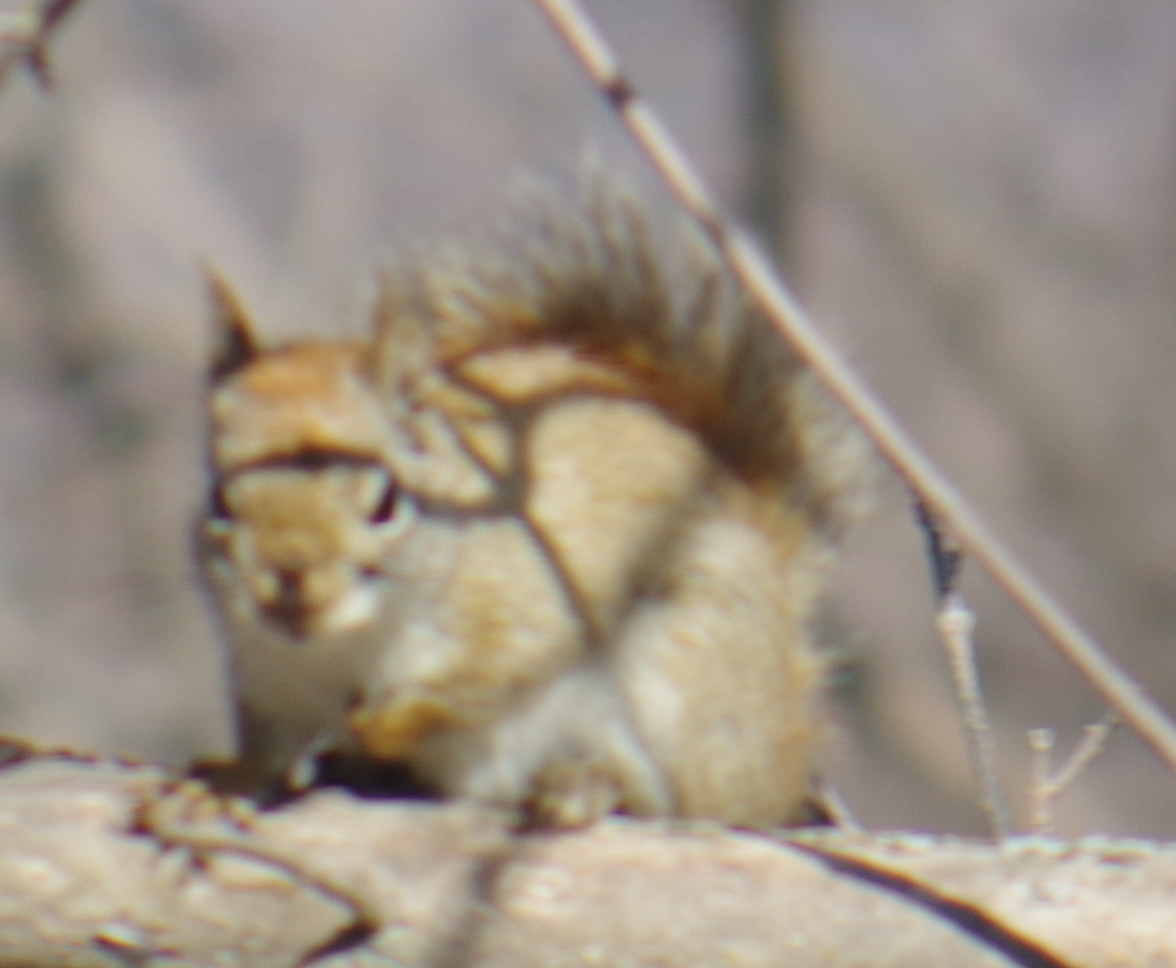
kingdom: Animalia
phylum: Chordata
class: Mammalia
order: Rodentia
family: Sciuridae
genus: Tamiasciurus
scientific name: Tamiasciurus hudsonicus
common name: Red squirrel
